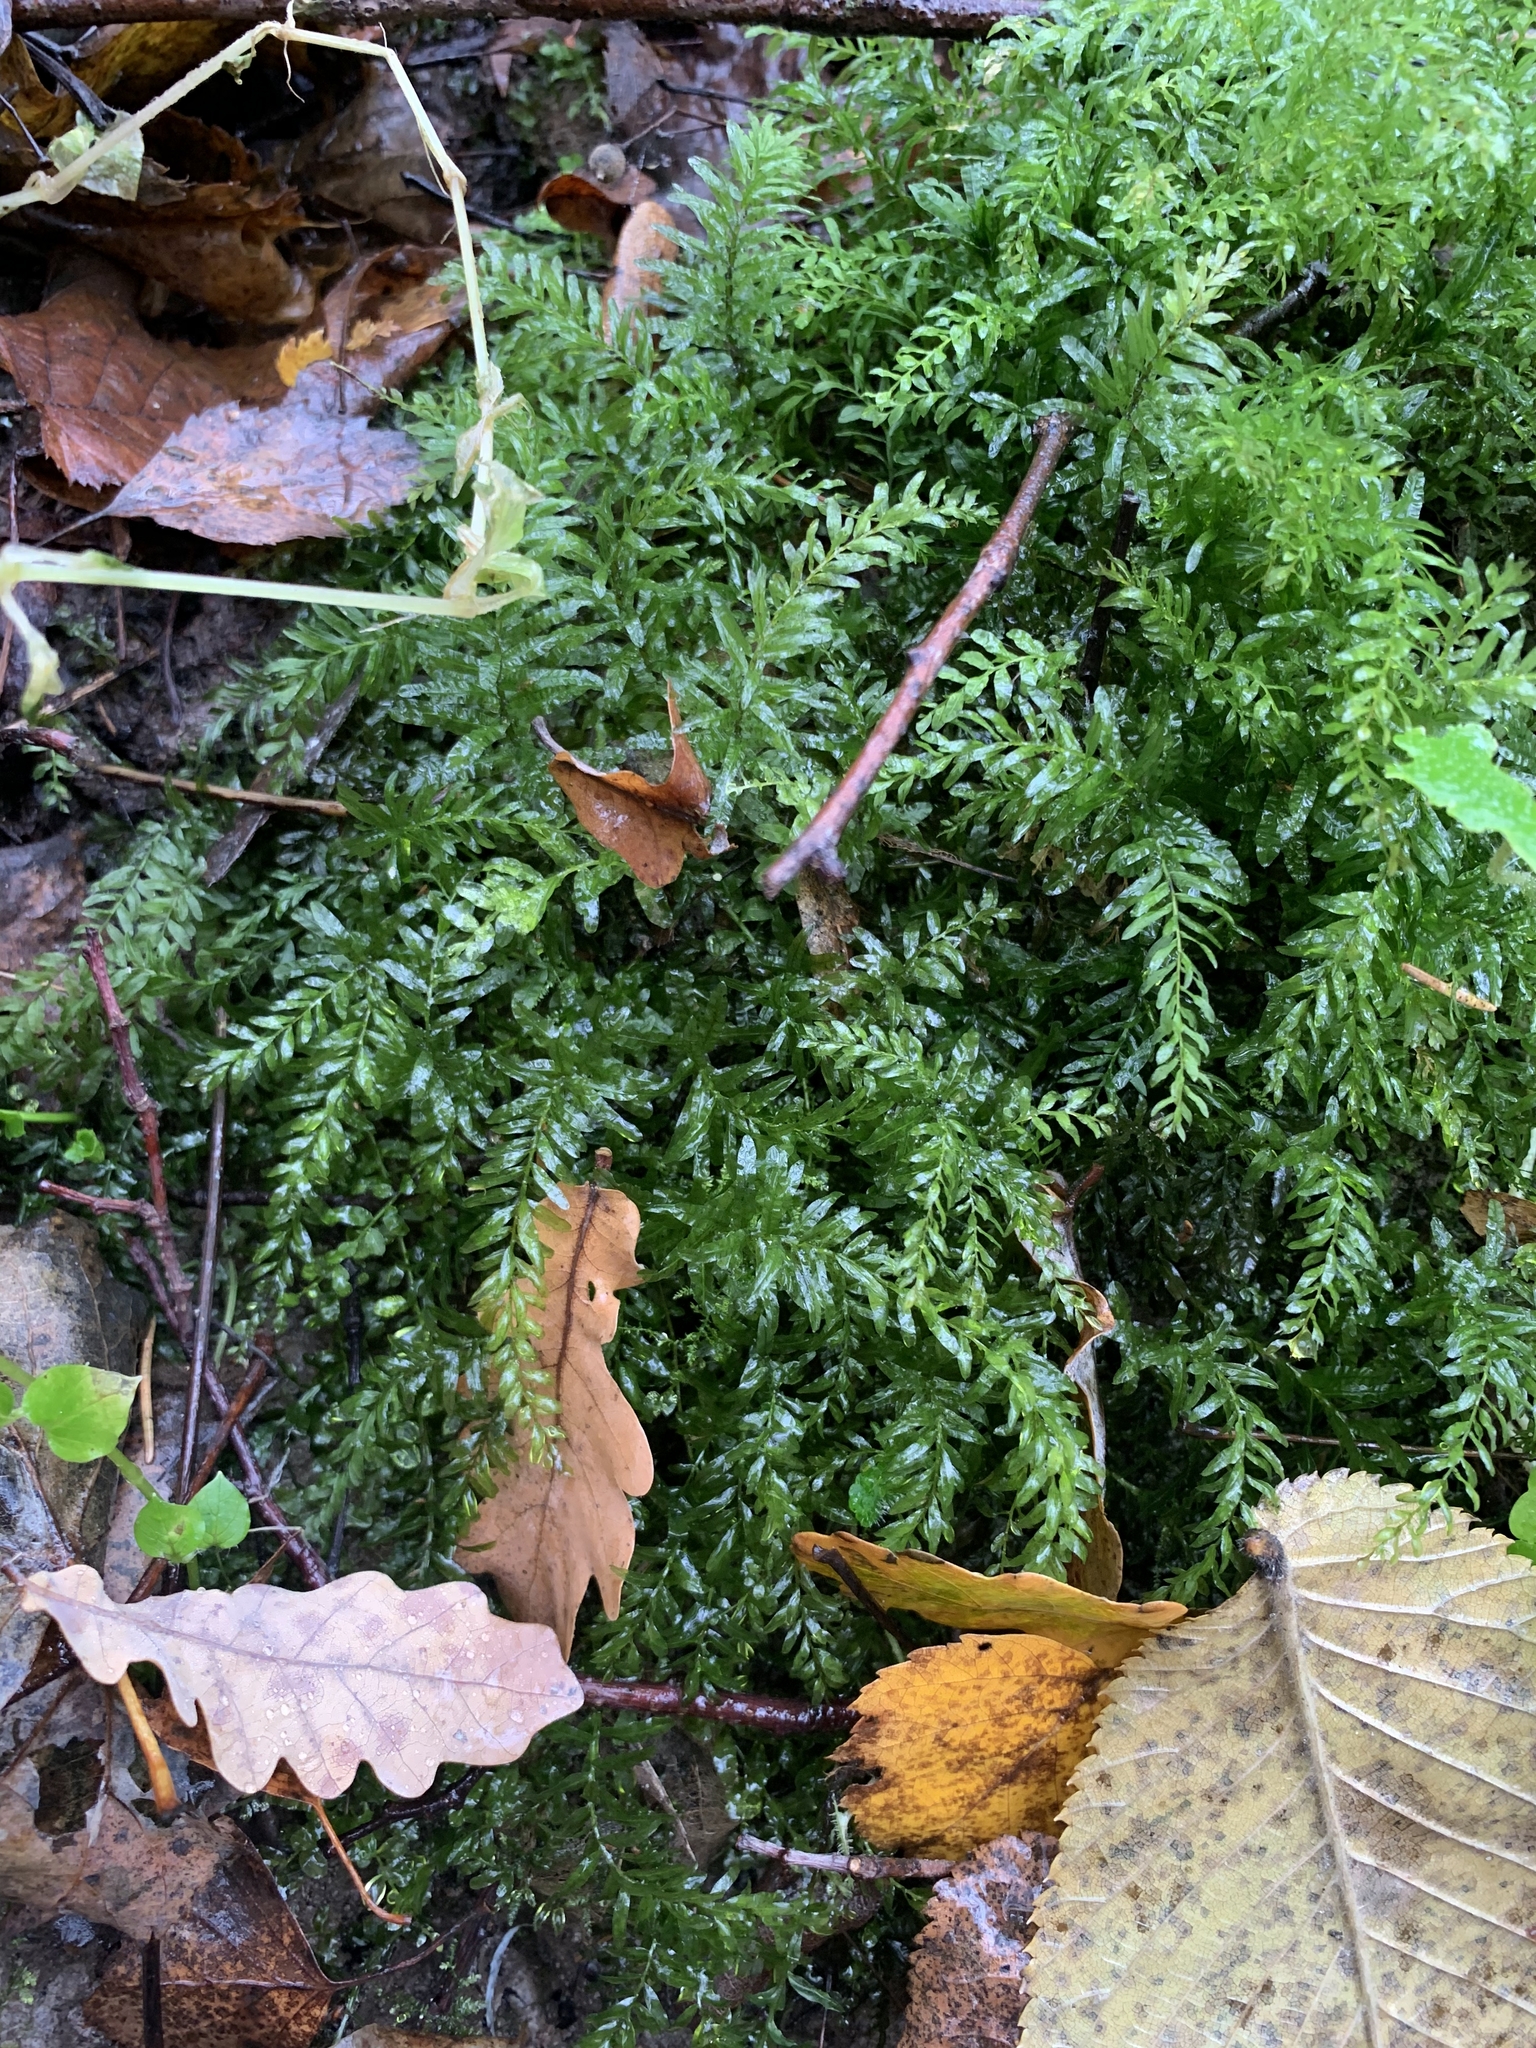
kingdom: Plantae
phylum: Bryophyta
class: Bryopsida
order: Bryales
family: Mniaceae
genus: Plagiomnium
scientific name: Plagiomnium undulatum
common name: Hart's-tongue thyme-moss
